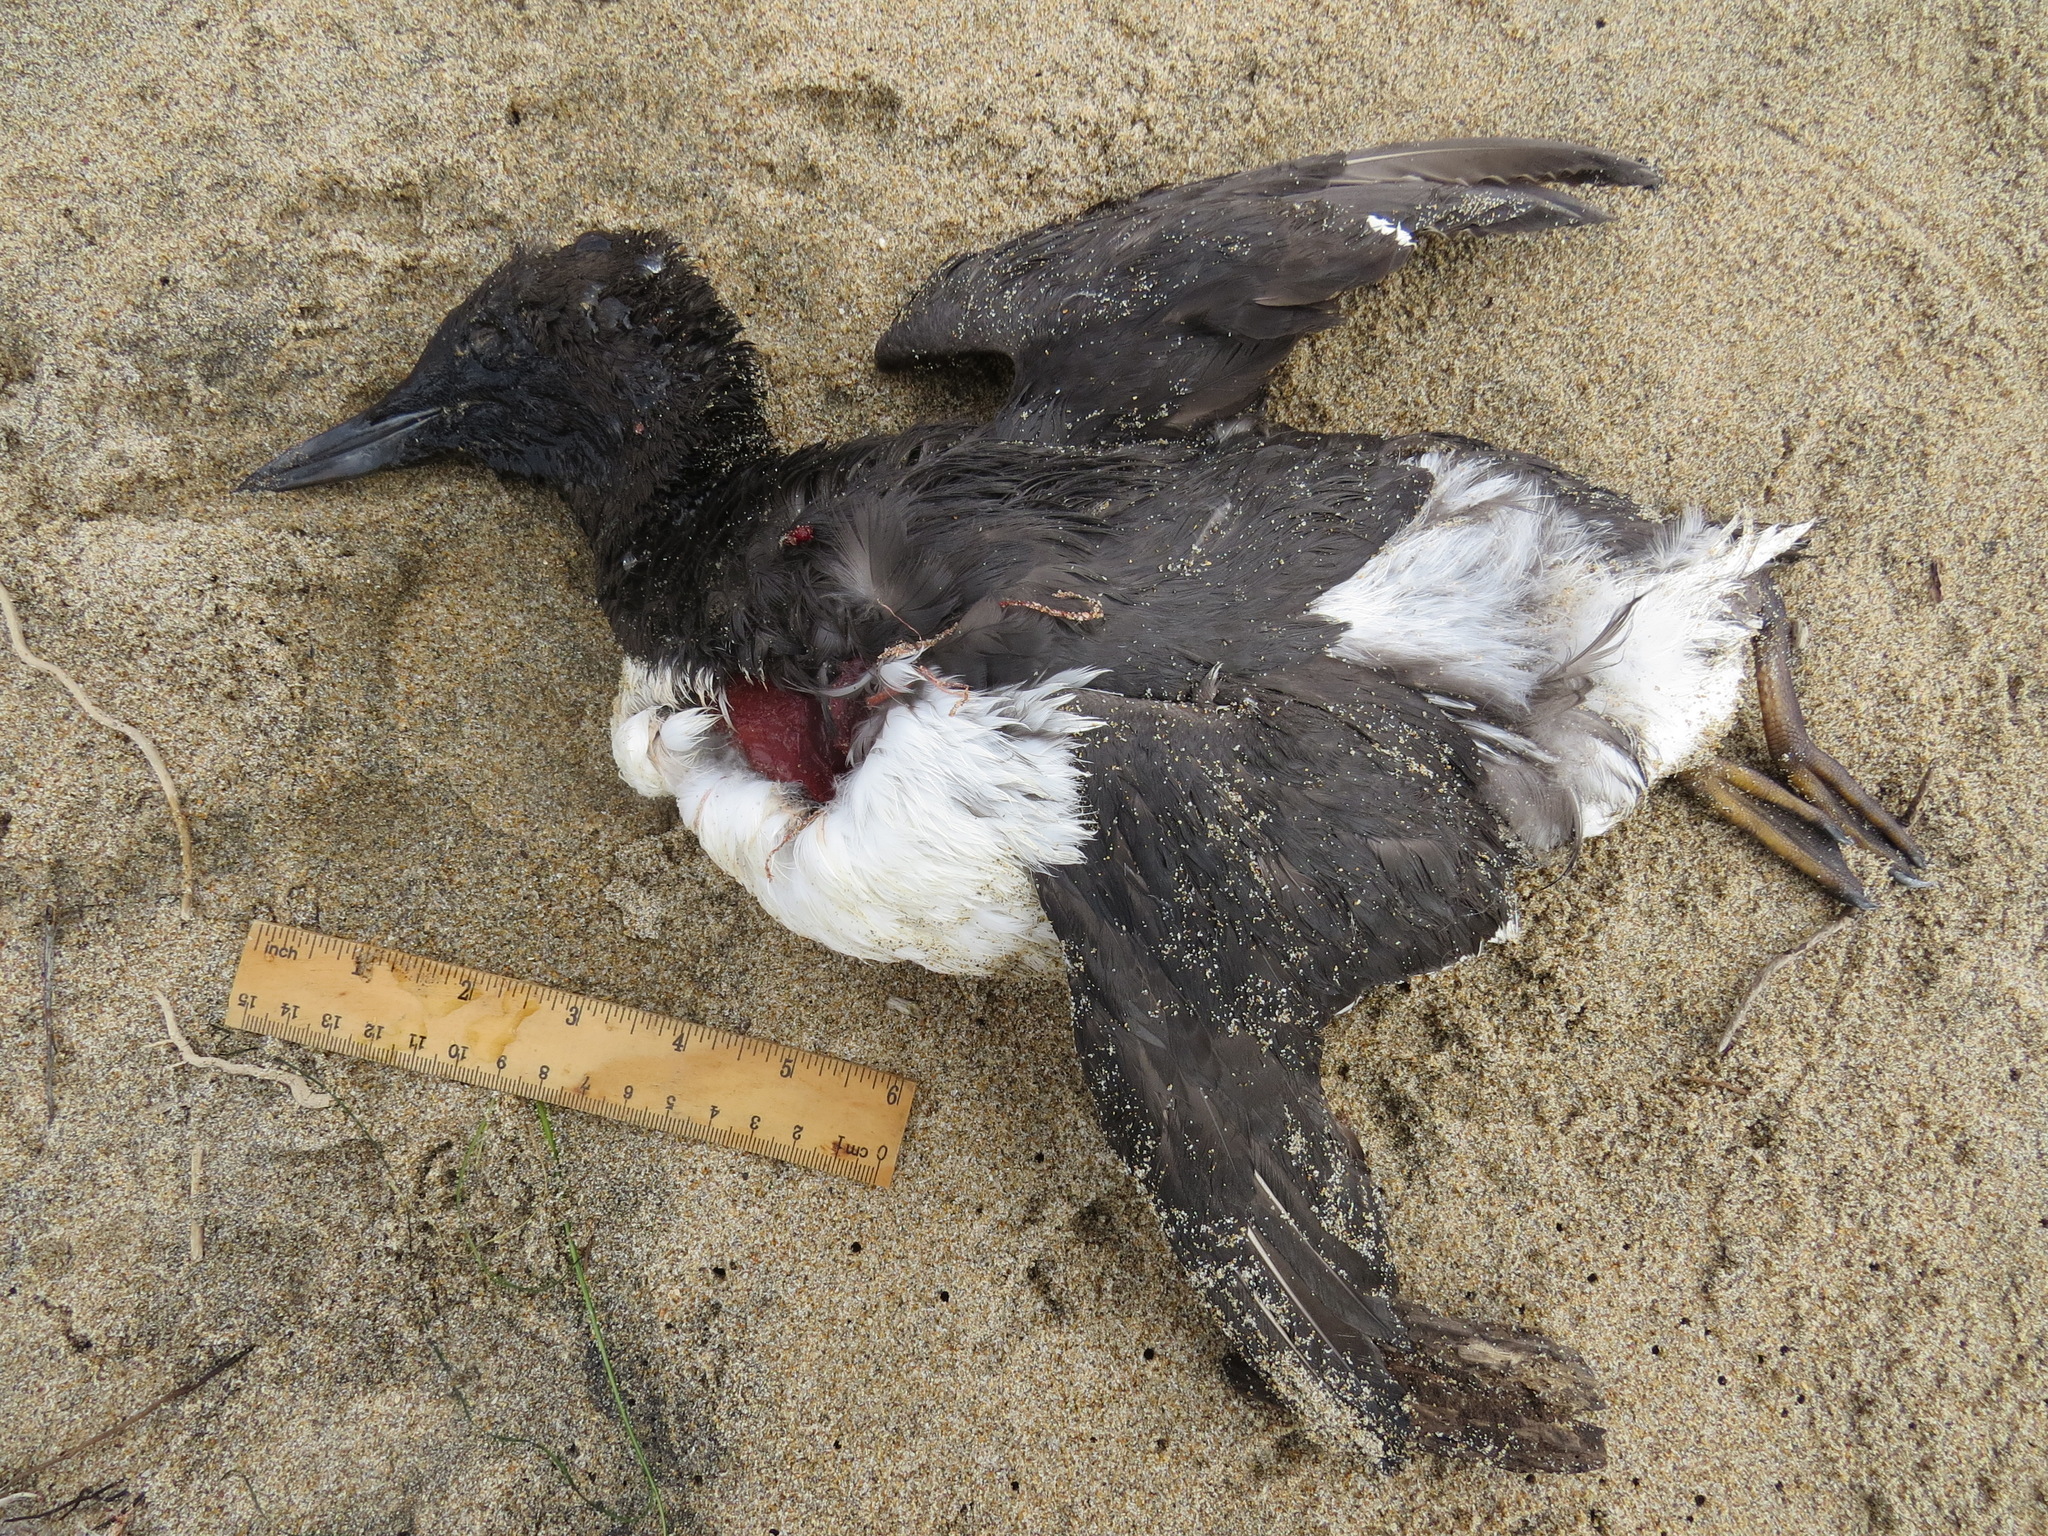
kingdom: Animalia
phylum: Chordata
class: Aves
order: Charadriiformes
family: Alcidae
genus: Uria
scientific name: Uria aalge
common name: Common murre
